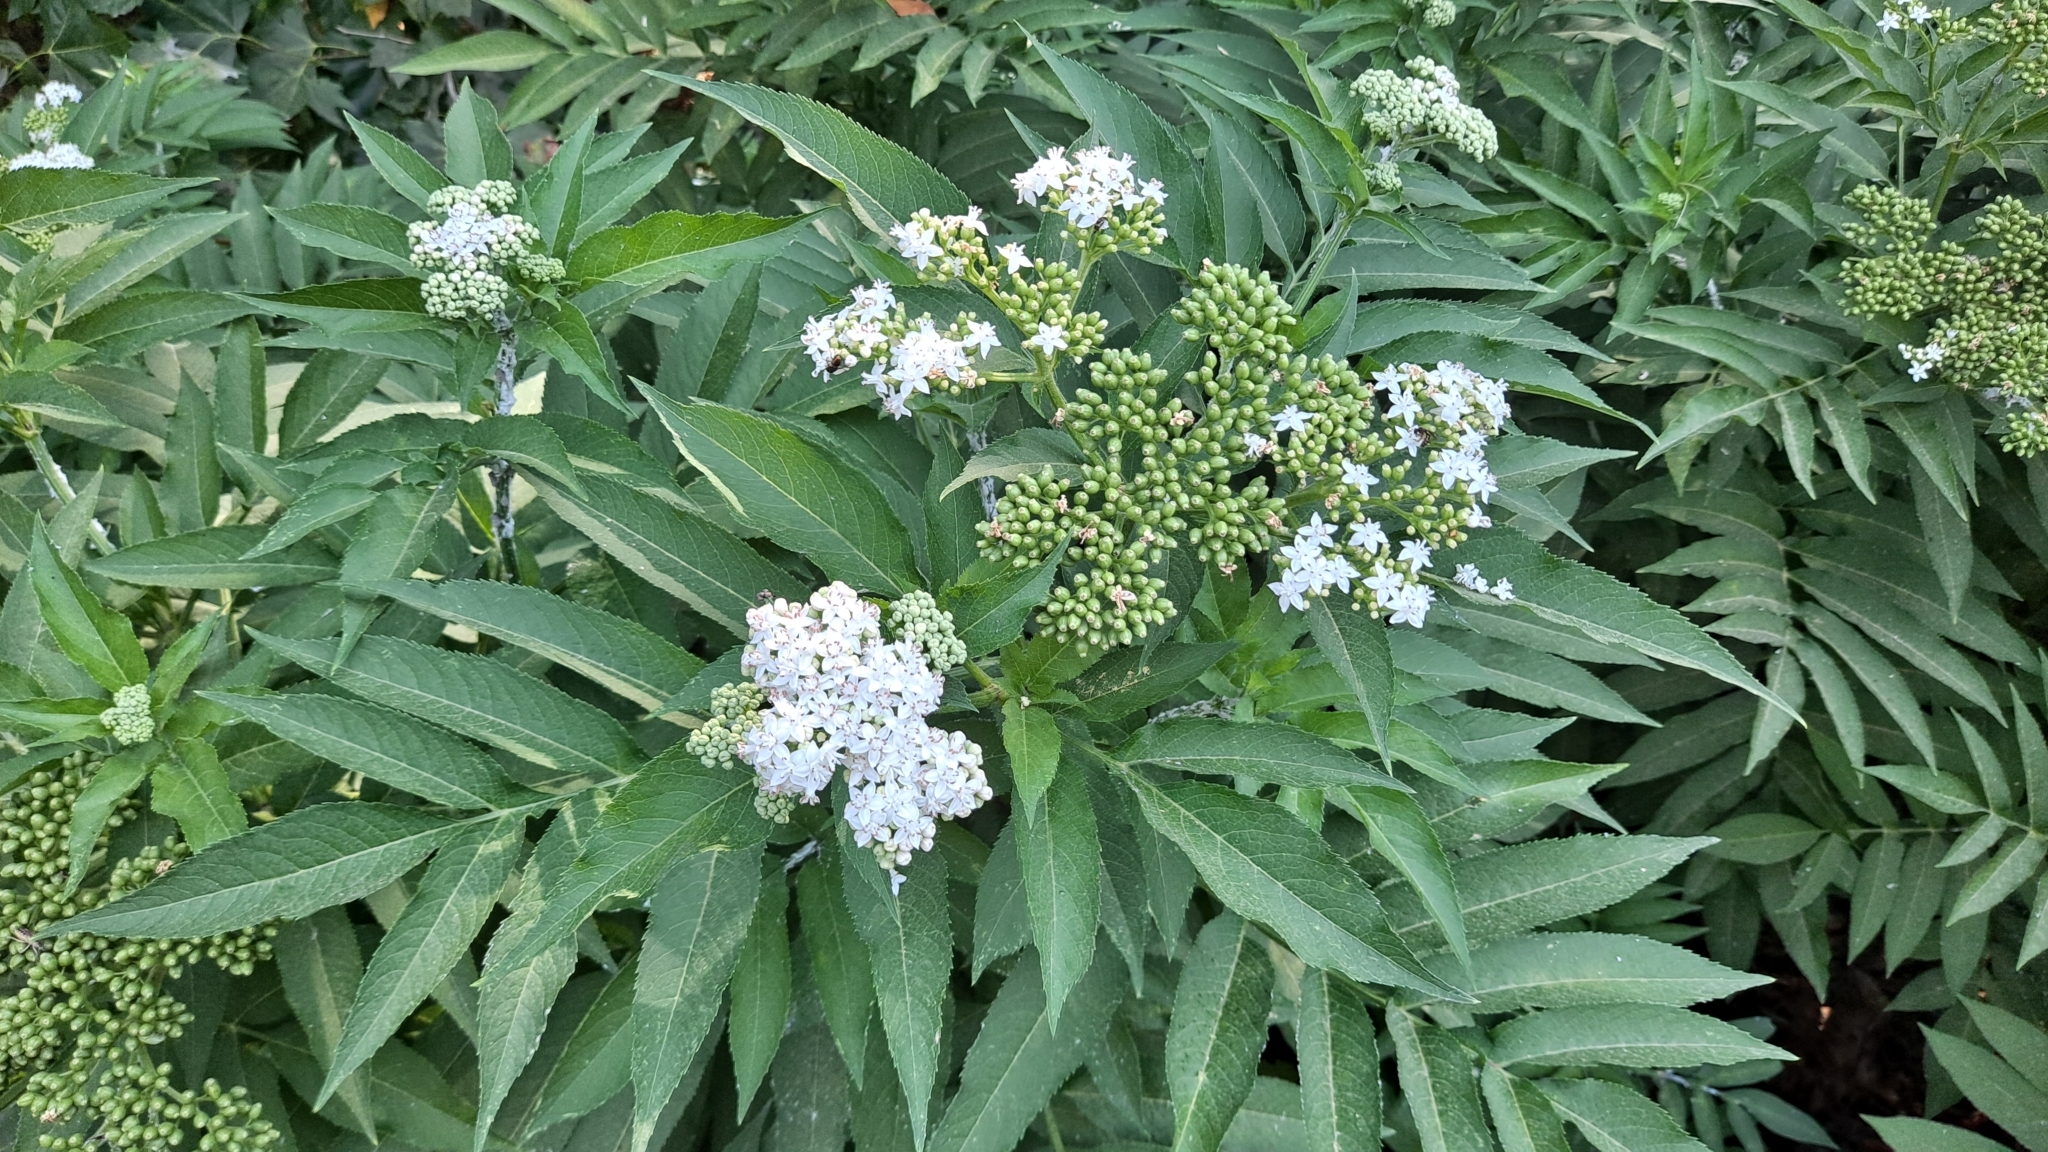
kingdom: Plantae
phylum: Tracheophyta
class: Magnoliopsida
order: Dipsacales
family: Viburnaceae
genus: Sambucus
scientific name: Sambucus ebulus
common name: Dwarf elder
